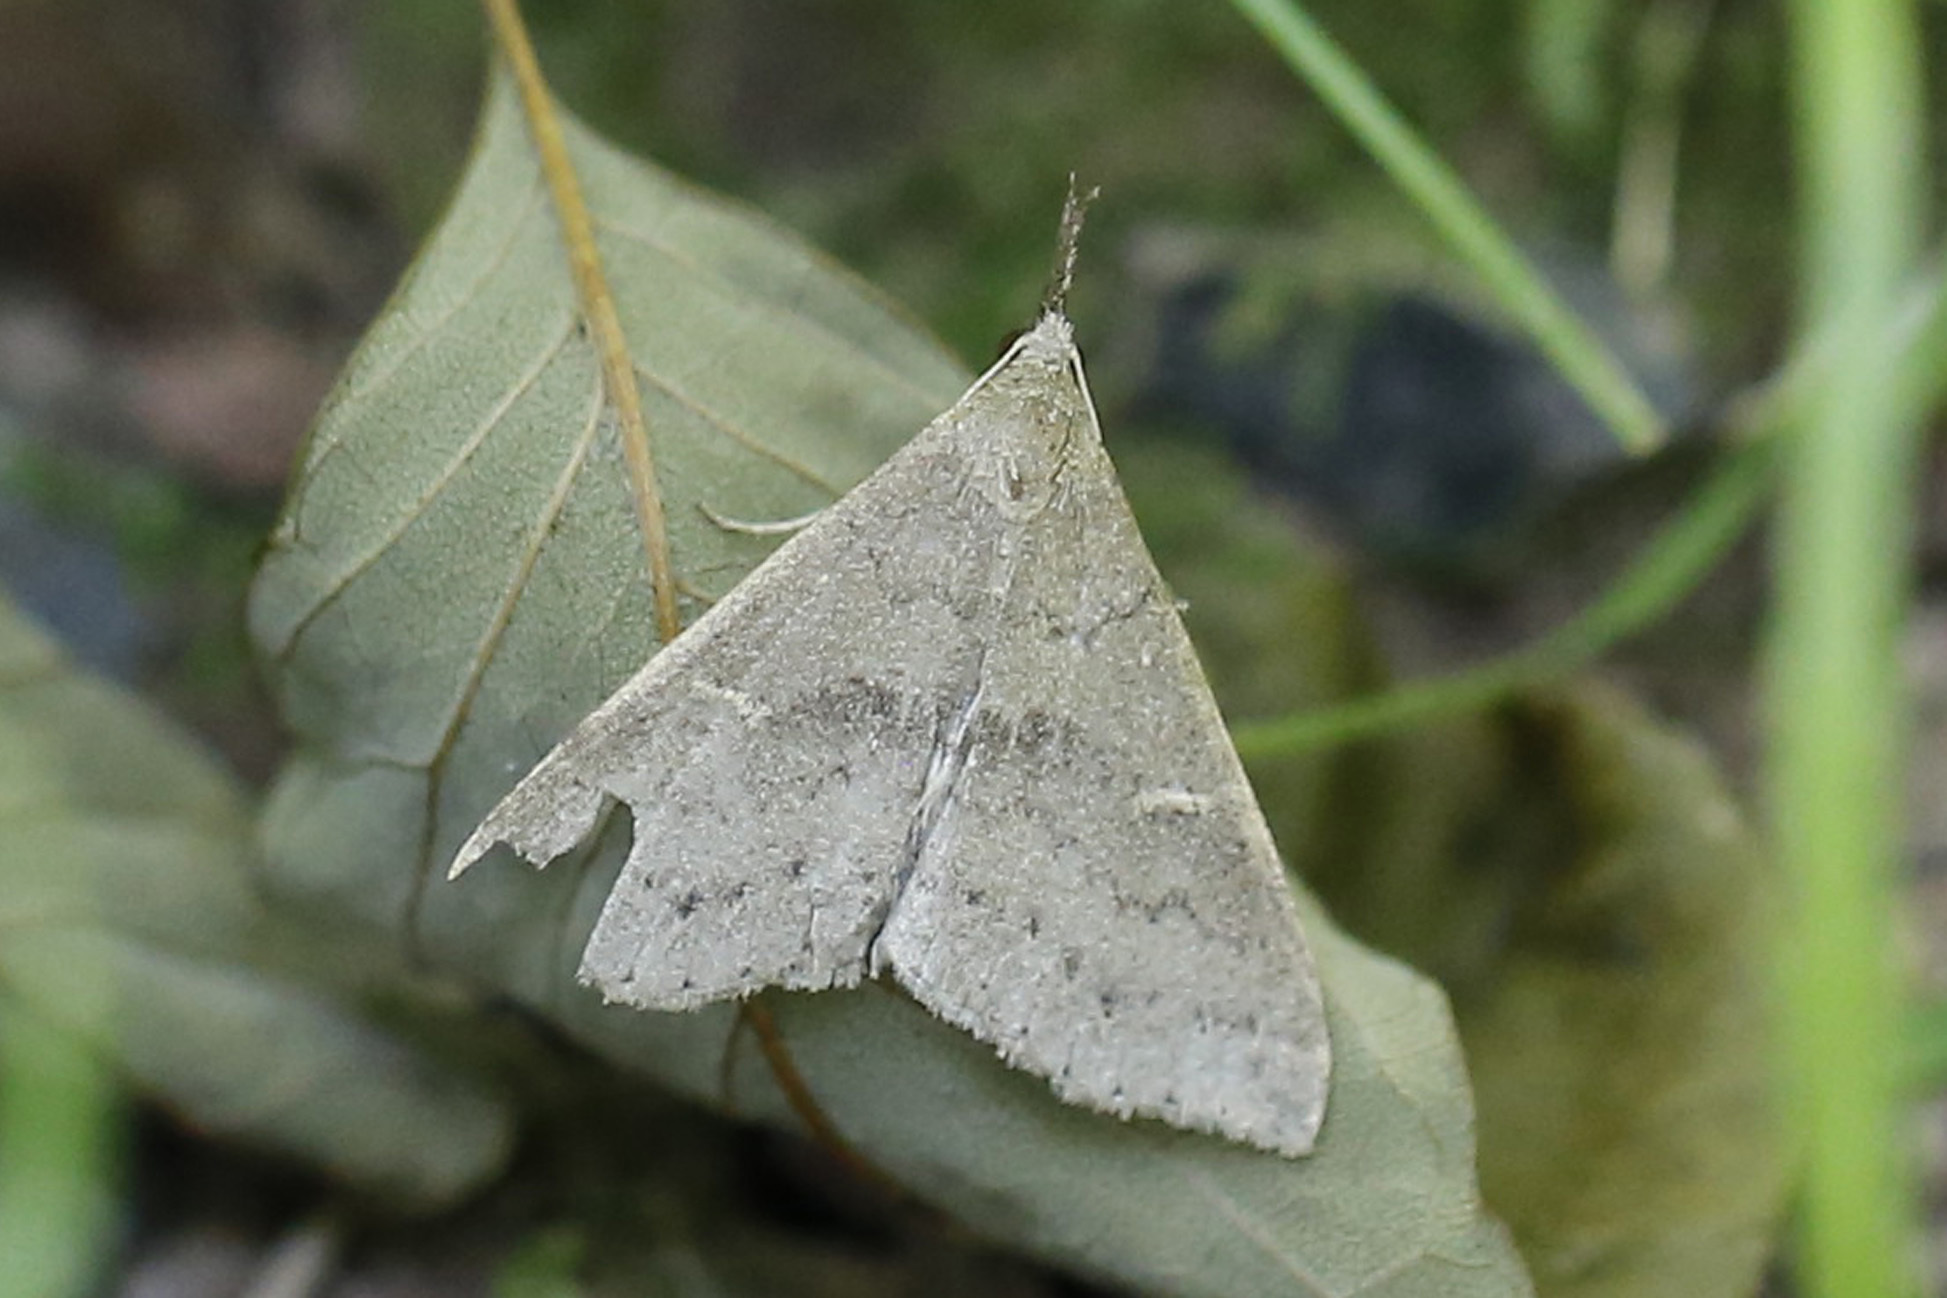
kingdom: Animalia
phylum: Arthropoda
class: Insecta
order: Lepidoptera
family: Erebidae
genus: Renia
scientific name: Renia adspergillus
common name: Speckled renia moth
